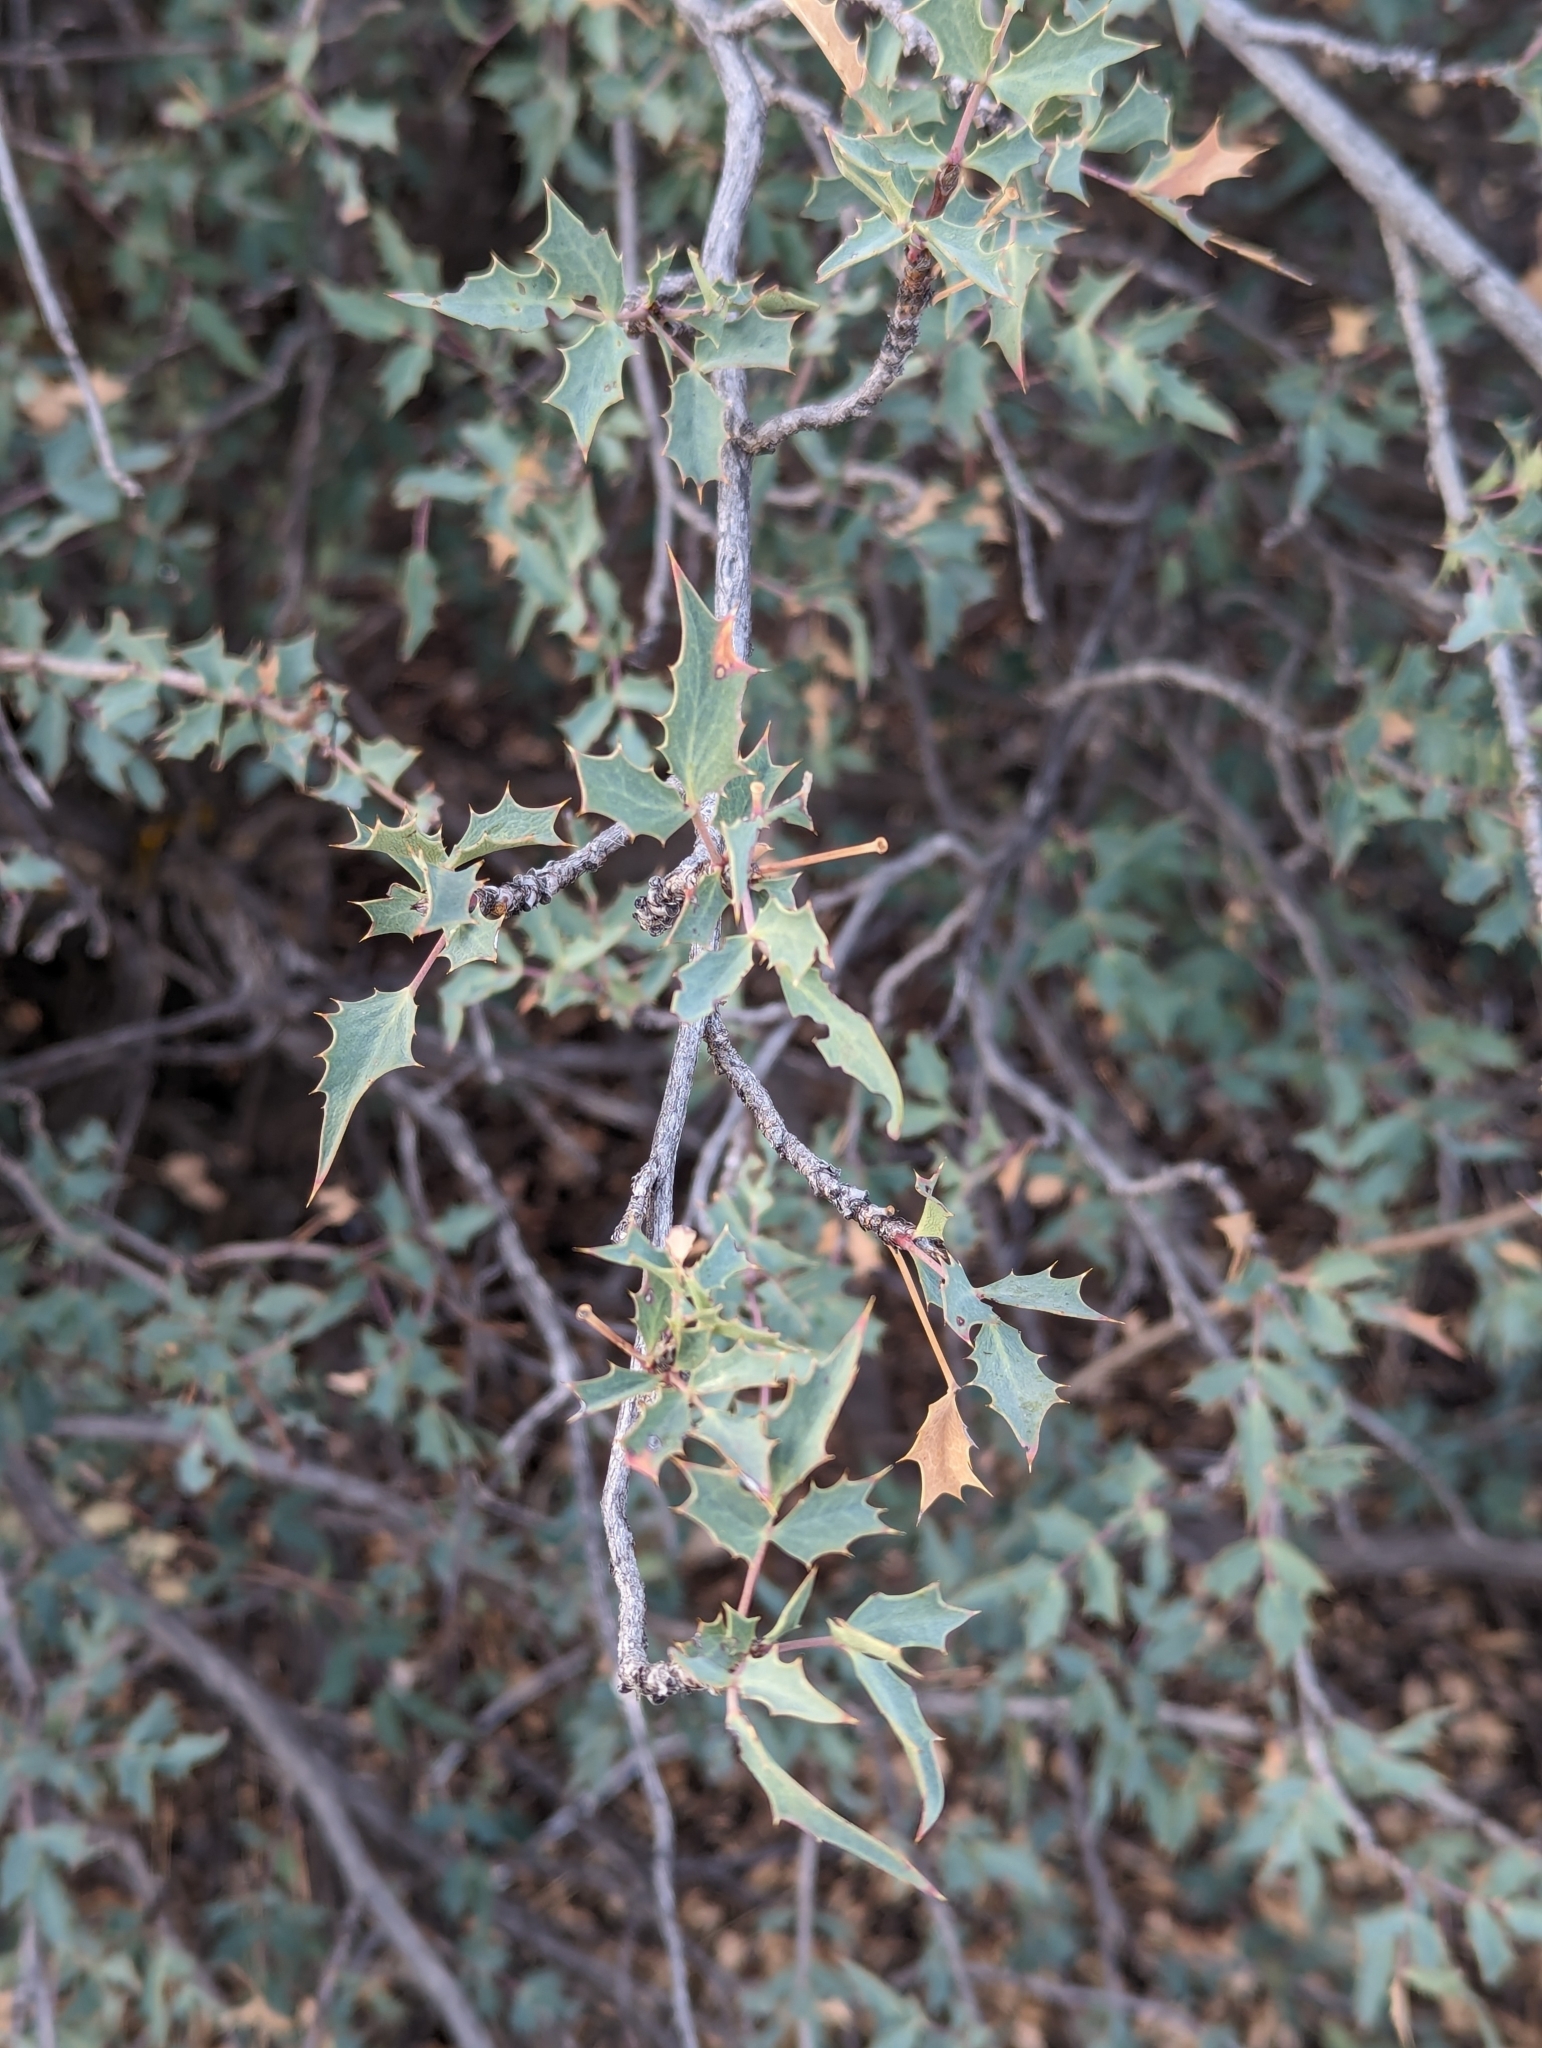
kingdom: Plantae
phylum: Tracheophyta
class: Magnoliopsida
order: Ranunculales
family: Berberidaceae
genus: Alloberberis
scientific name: Alloberberis fremontii
